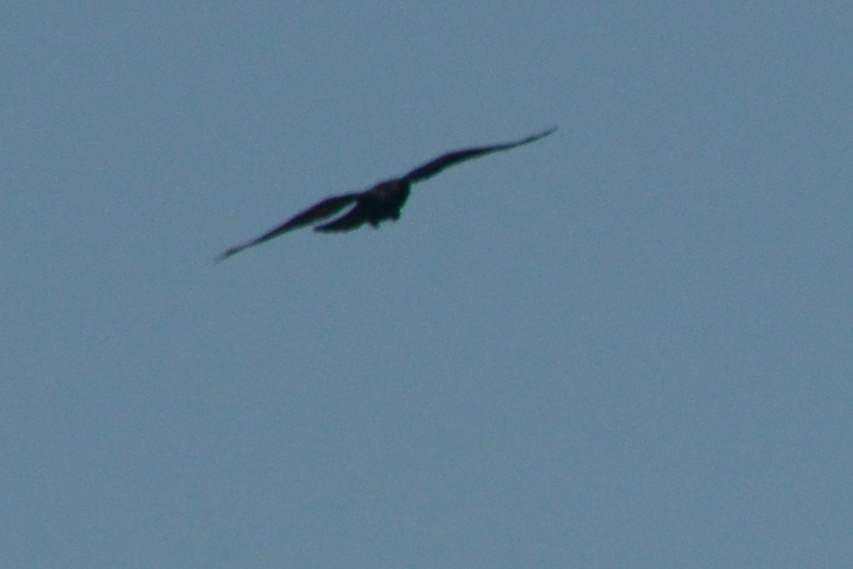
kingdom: Animalia
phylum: Chordata
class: Aves
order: Passeriformes
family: Corvidae
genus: Corvus
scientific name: Corvus corax
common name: Common raven
